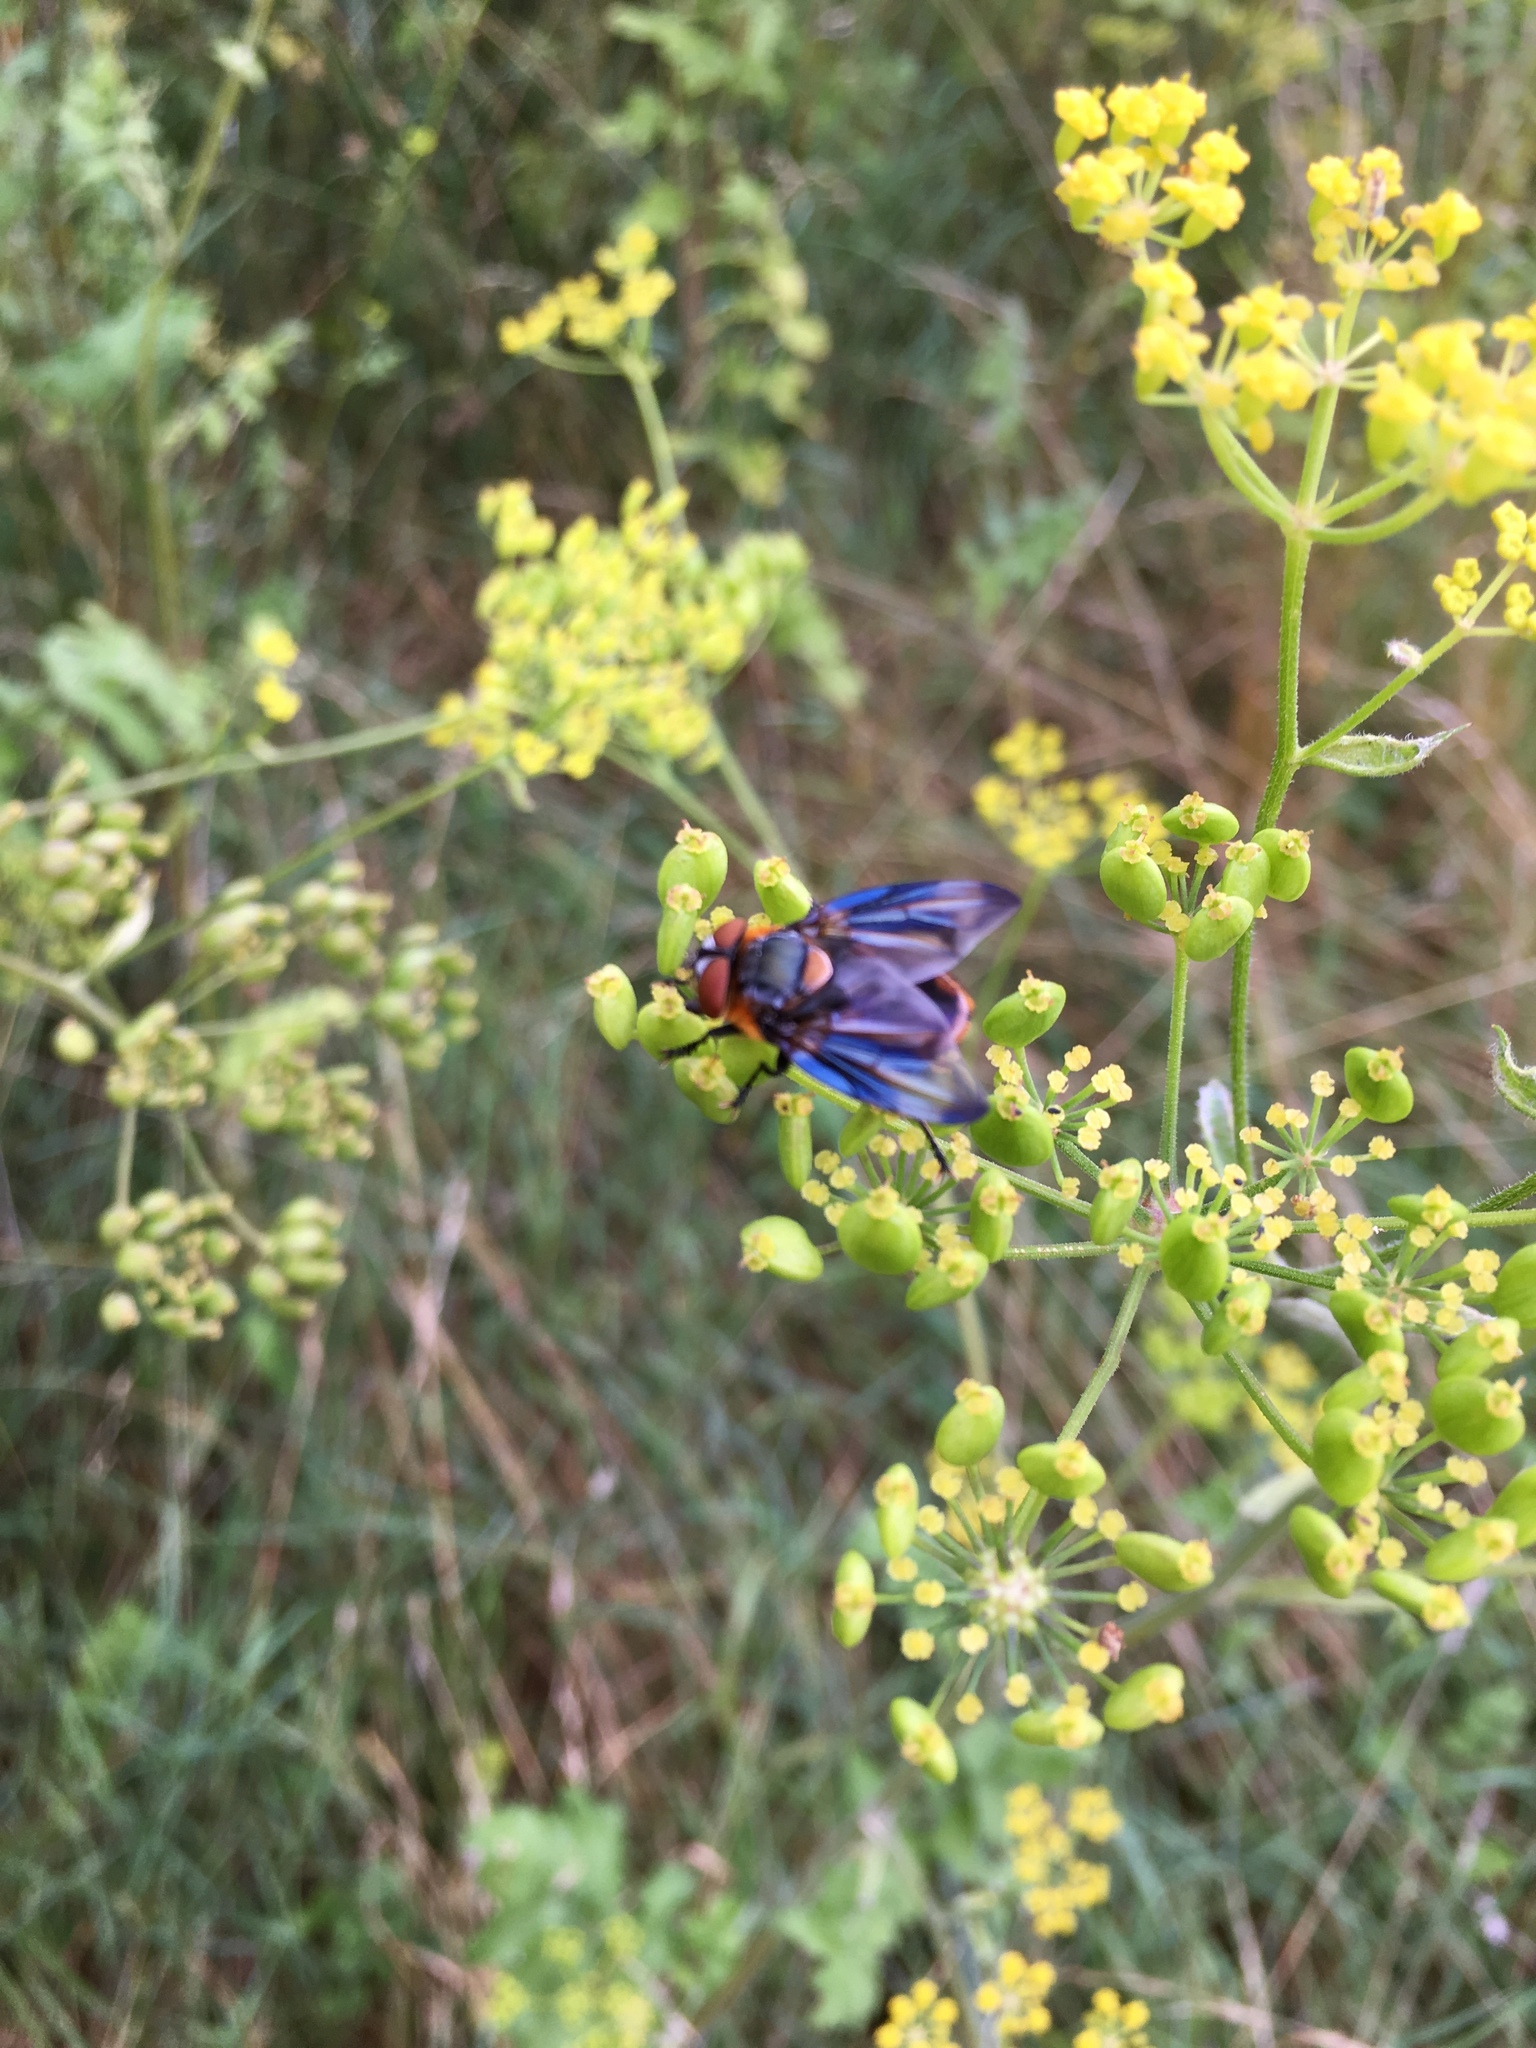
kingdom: Animalia
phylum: Arthropoda
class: Insecta
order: Diptera
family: Tachinidae
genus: Phasia
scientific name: Phasia hemiptera
